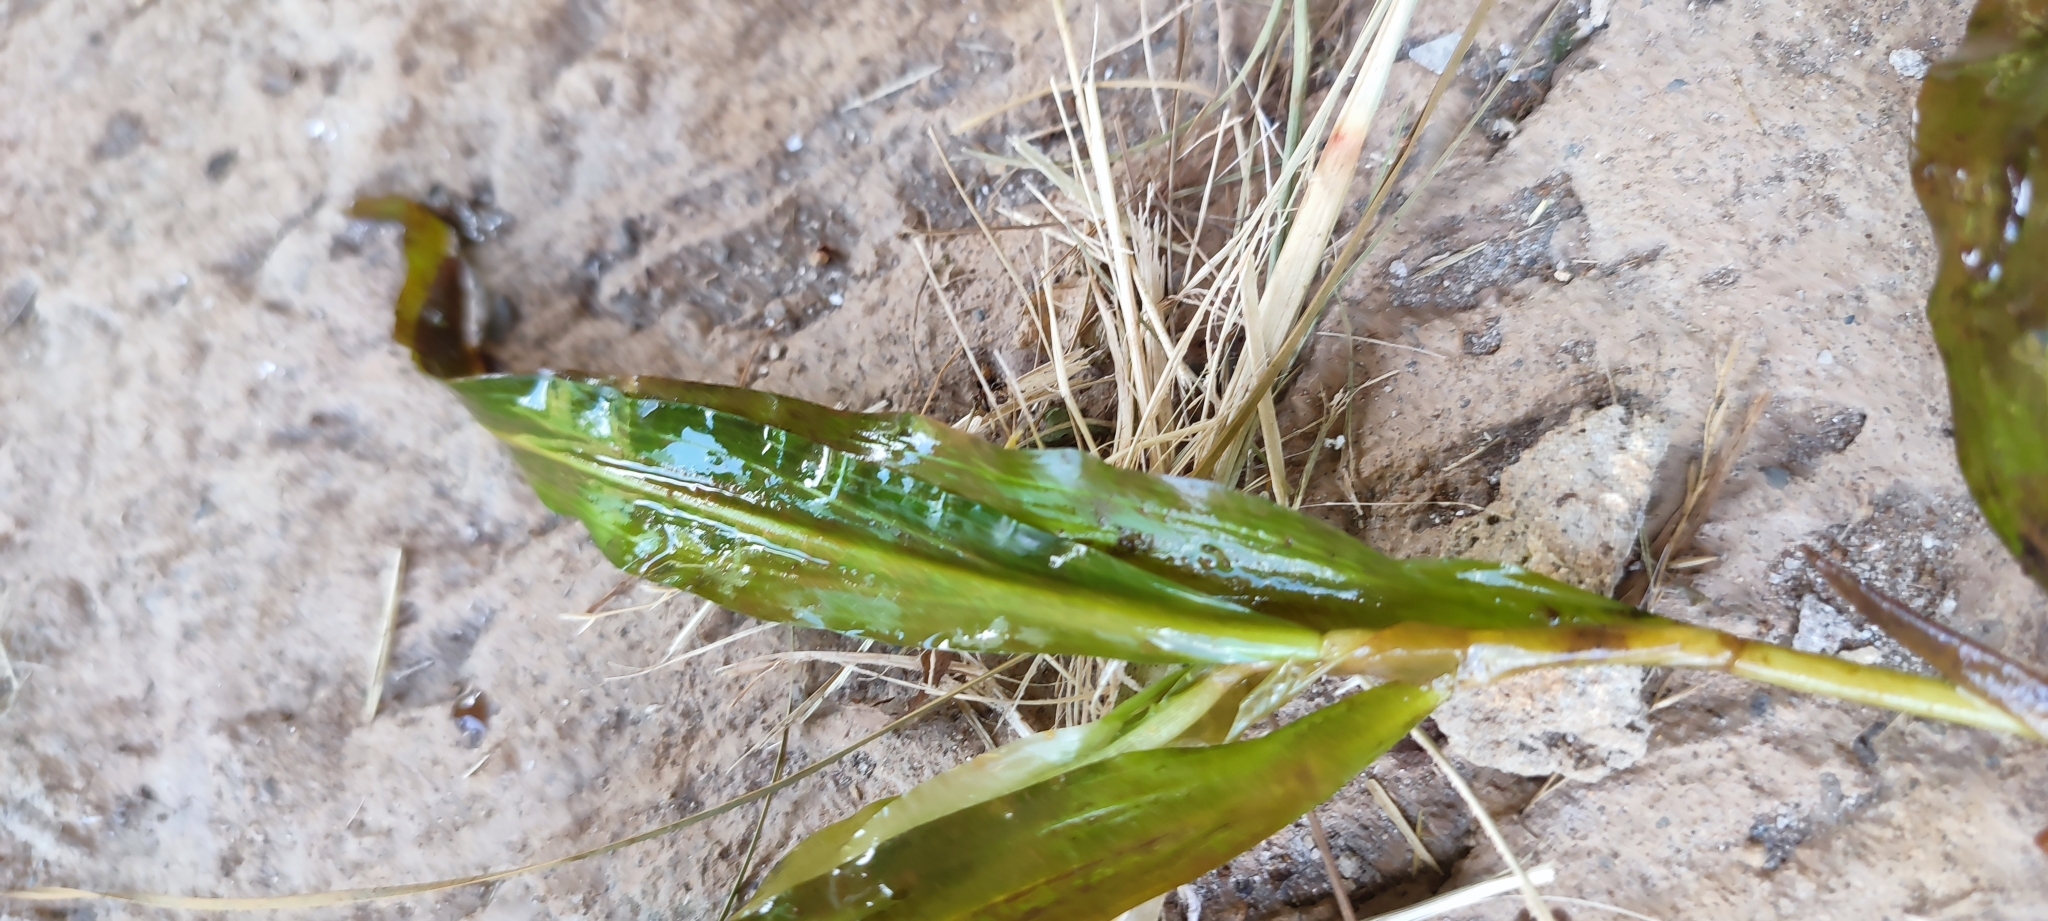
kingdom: Plantae
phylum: Tracheophyta
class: Liliopsida
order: Alismatales
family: Potamogetonaceae
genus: Potamogeton
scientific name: Potamogeton alpinus
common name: Red pondweed
